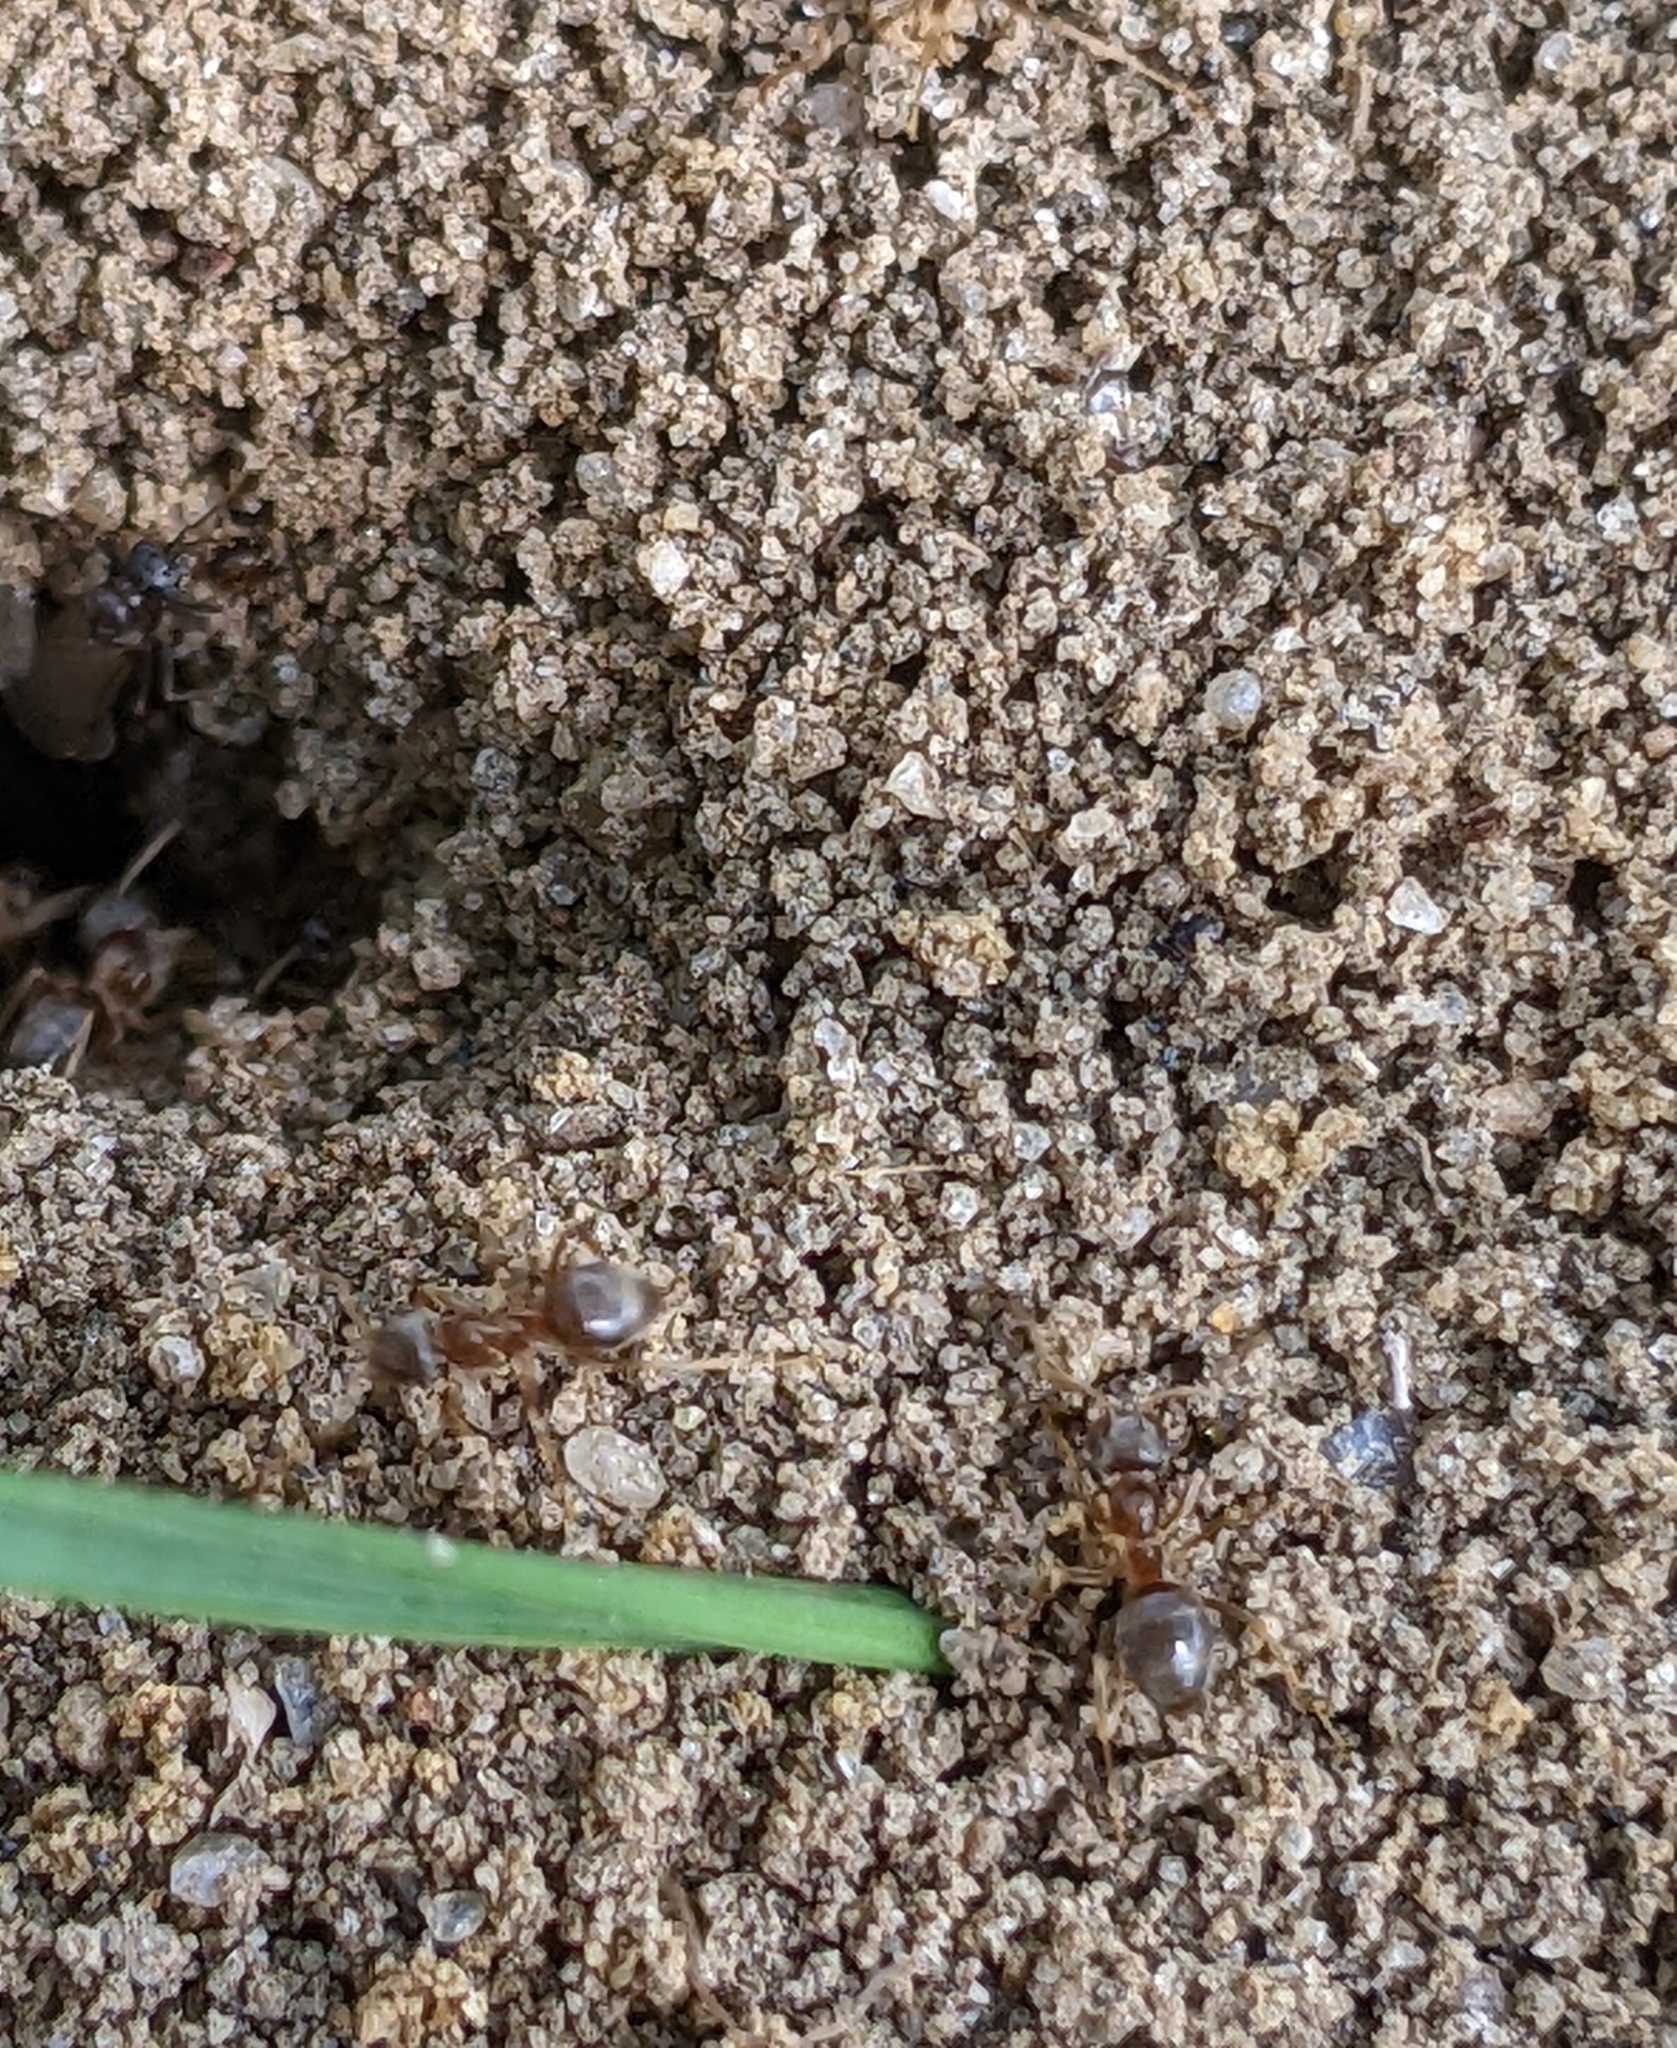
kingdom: Animalia
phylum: Arthropoda
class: Insecta
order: Hymenoptera
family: Formicidae
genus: Lasius
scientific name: Lasius neoniger
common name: Turfgrass ant
